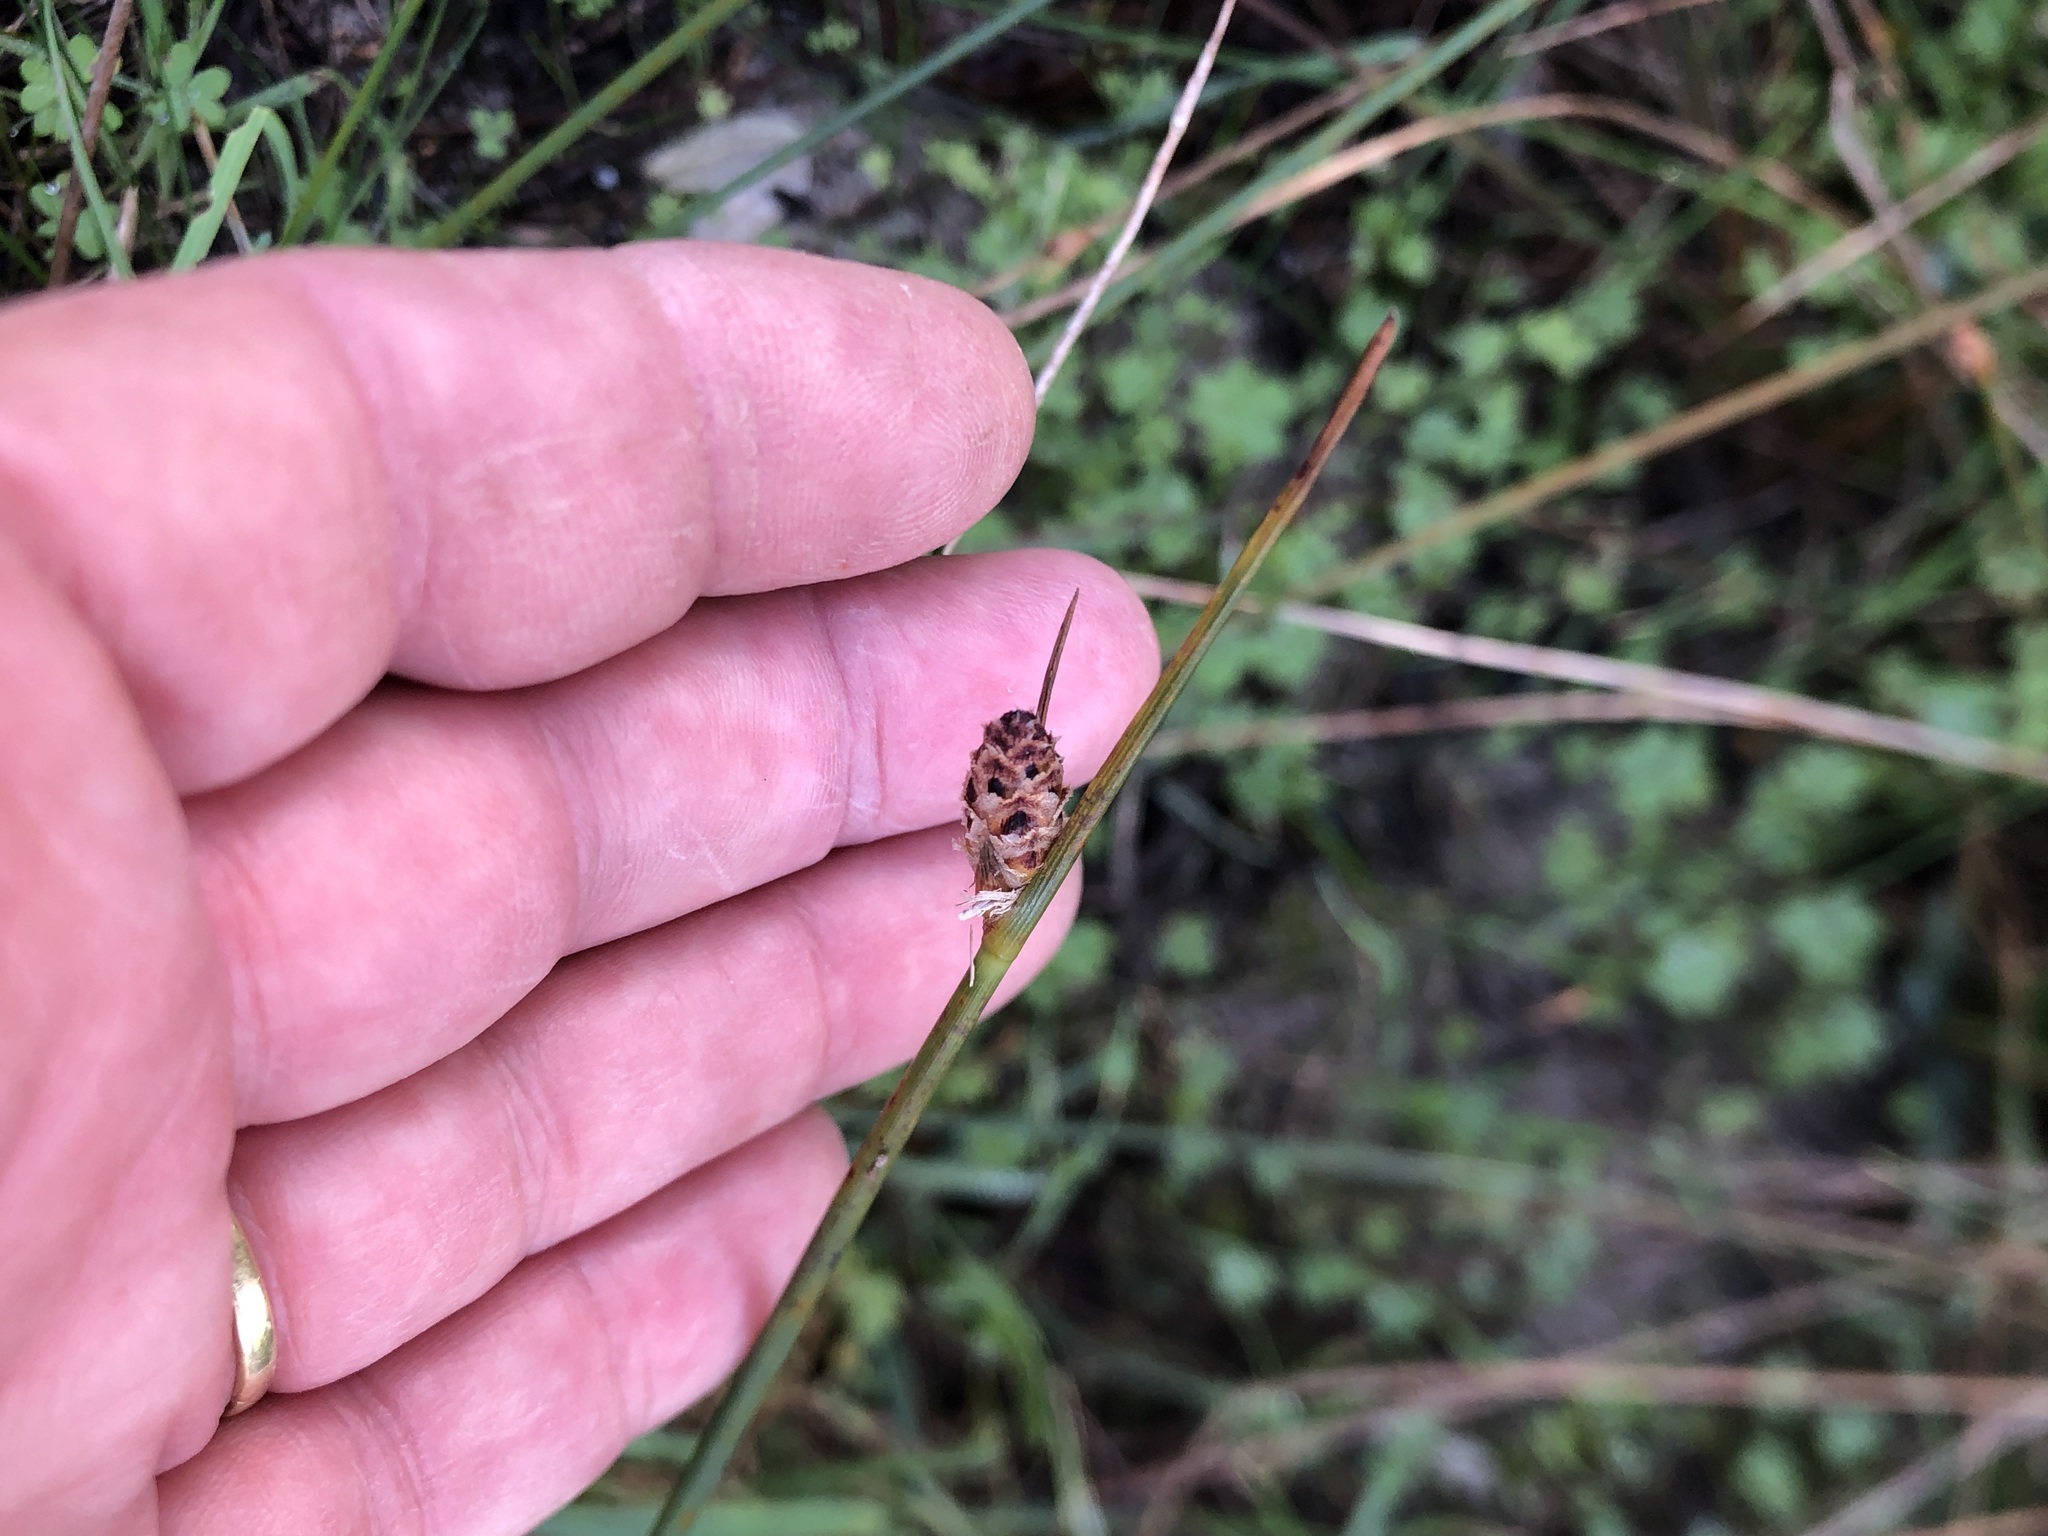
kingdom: Plantae
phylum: Tracheophyta
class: Liliopsida
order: Poales
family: Cyperaceae
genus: Hellmuthia
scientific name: Hellmuthia membranacea
